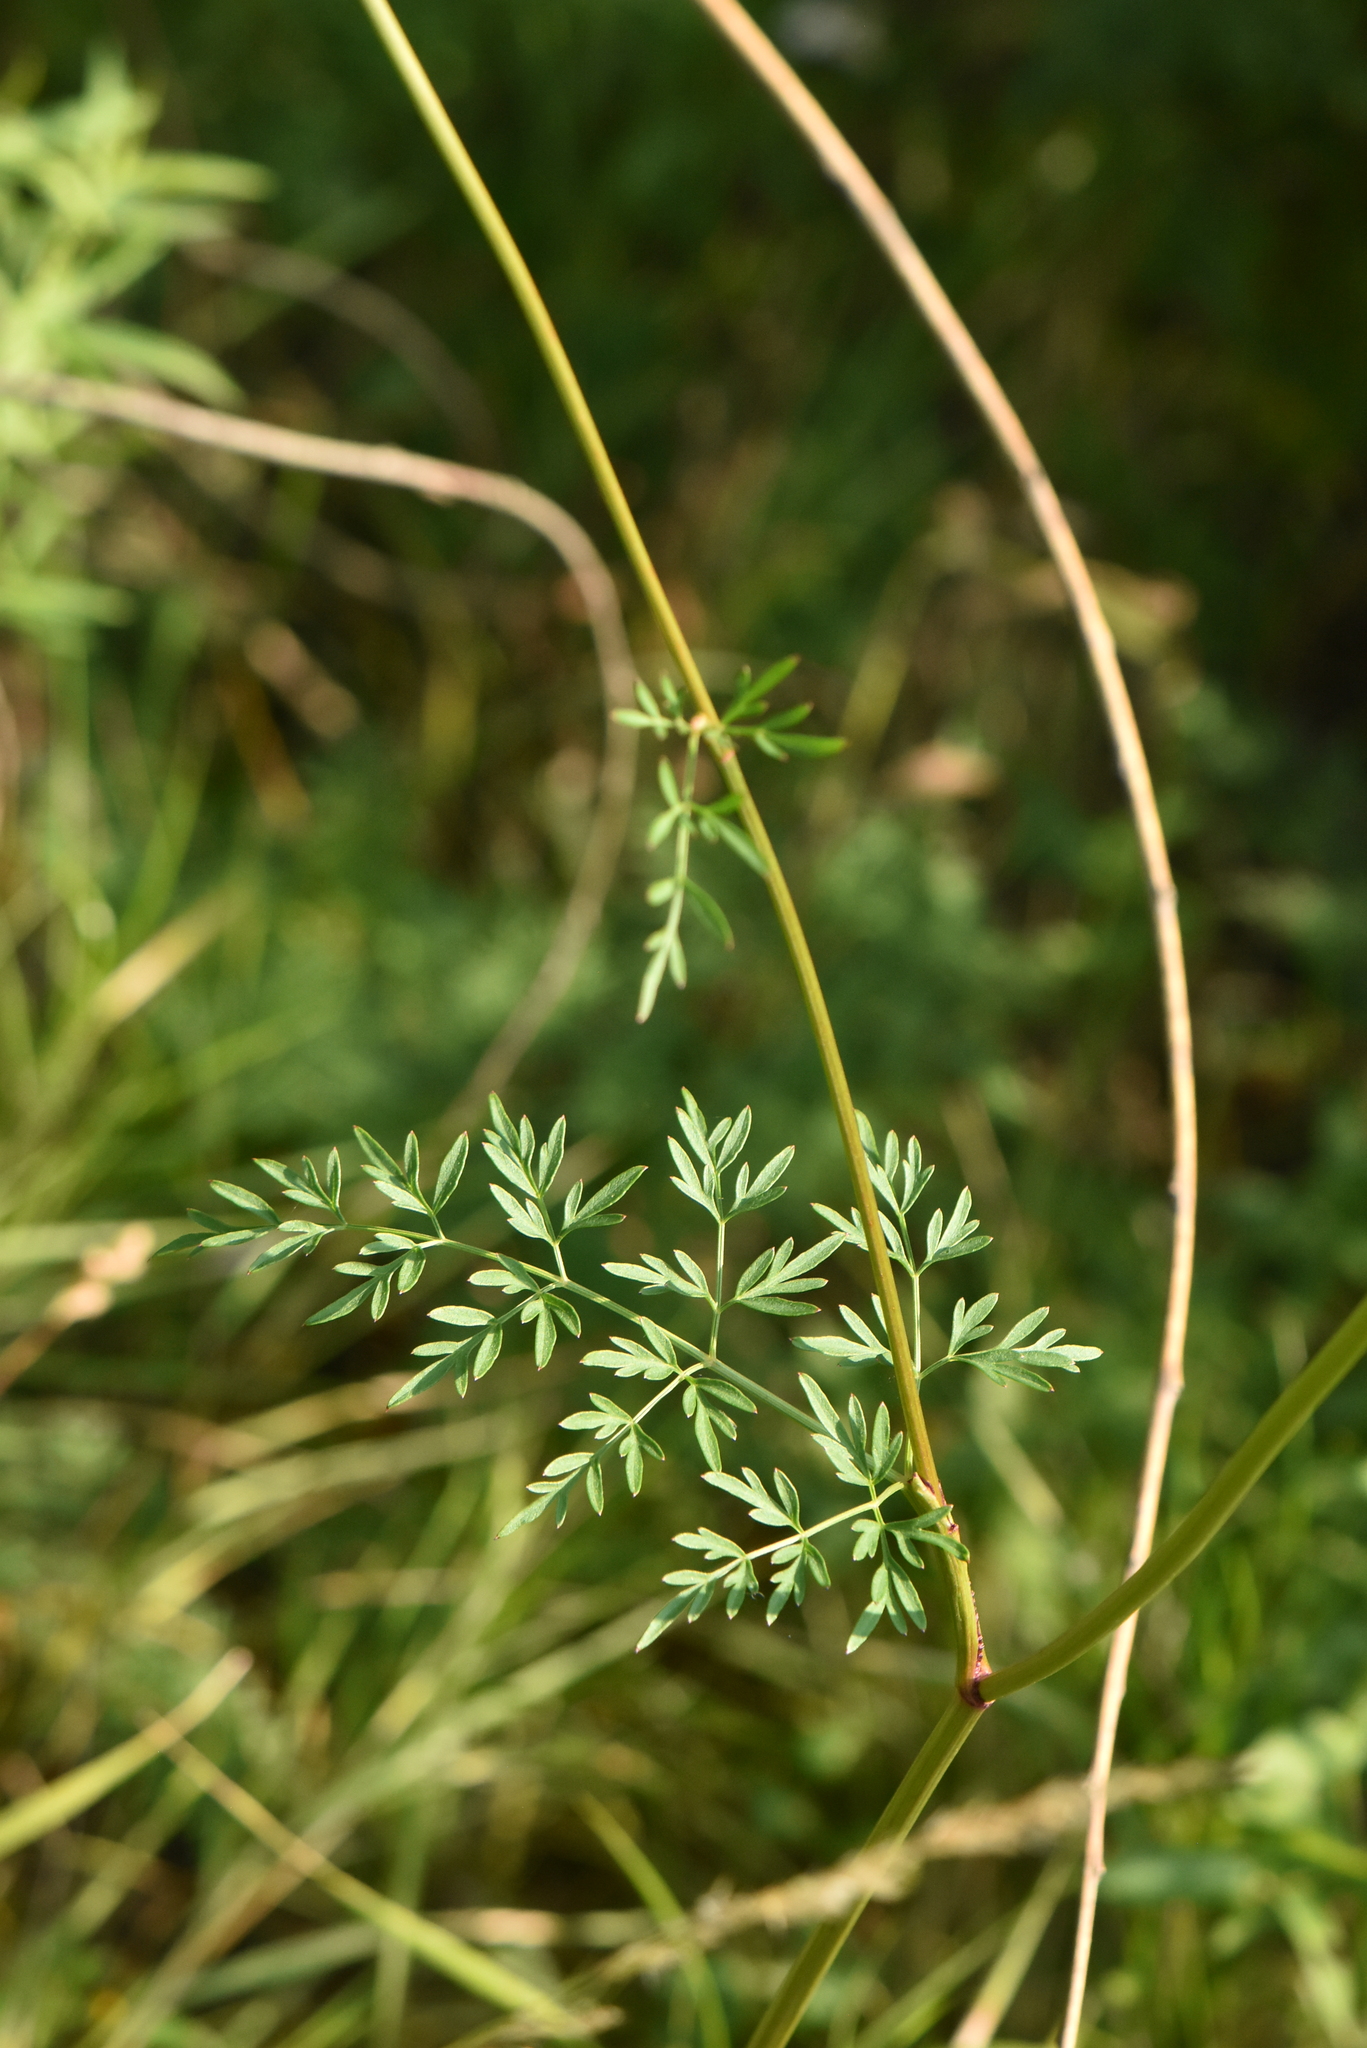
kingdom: Plantae
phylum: Tracheophyta
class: Magnoliopsida
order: Apiales
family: Apiaceae
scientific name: Apiaceae
